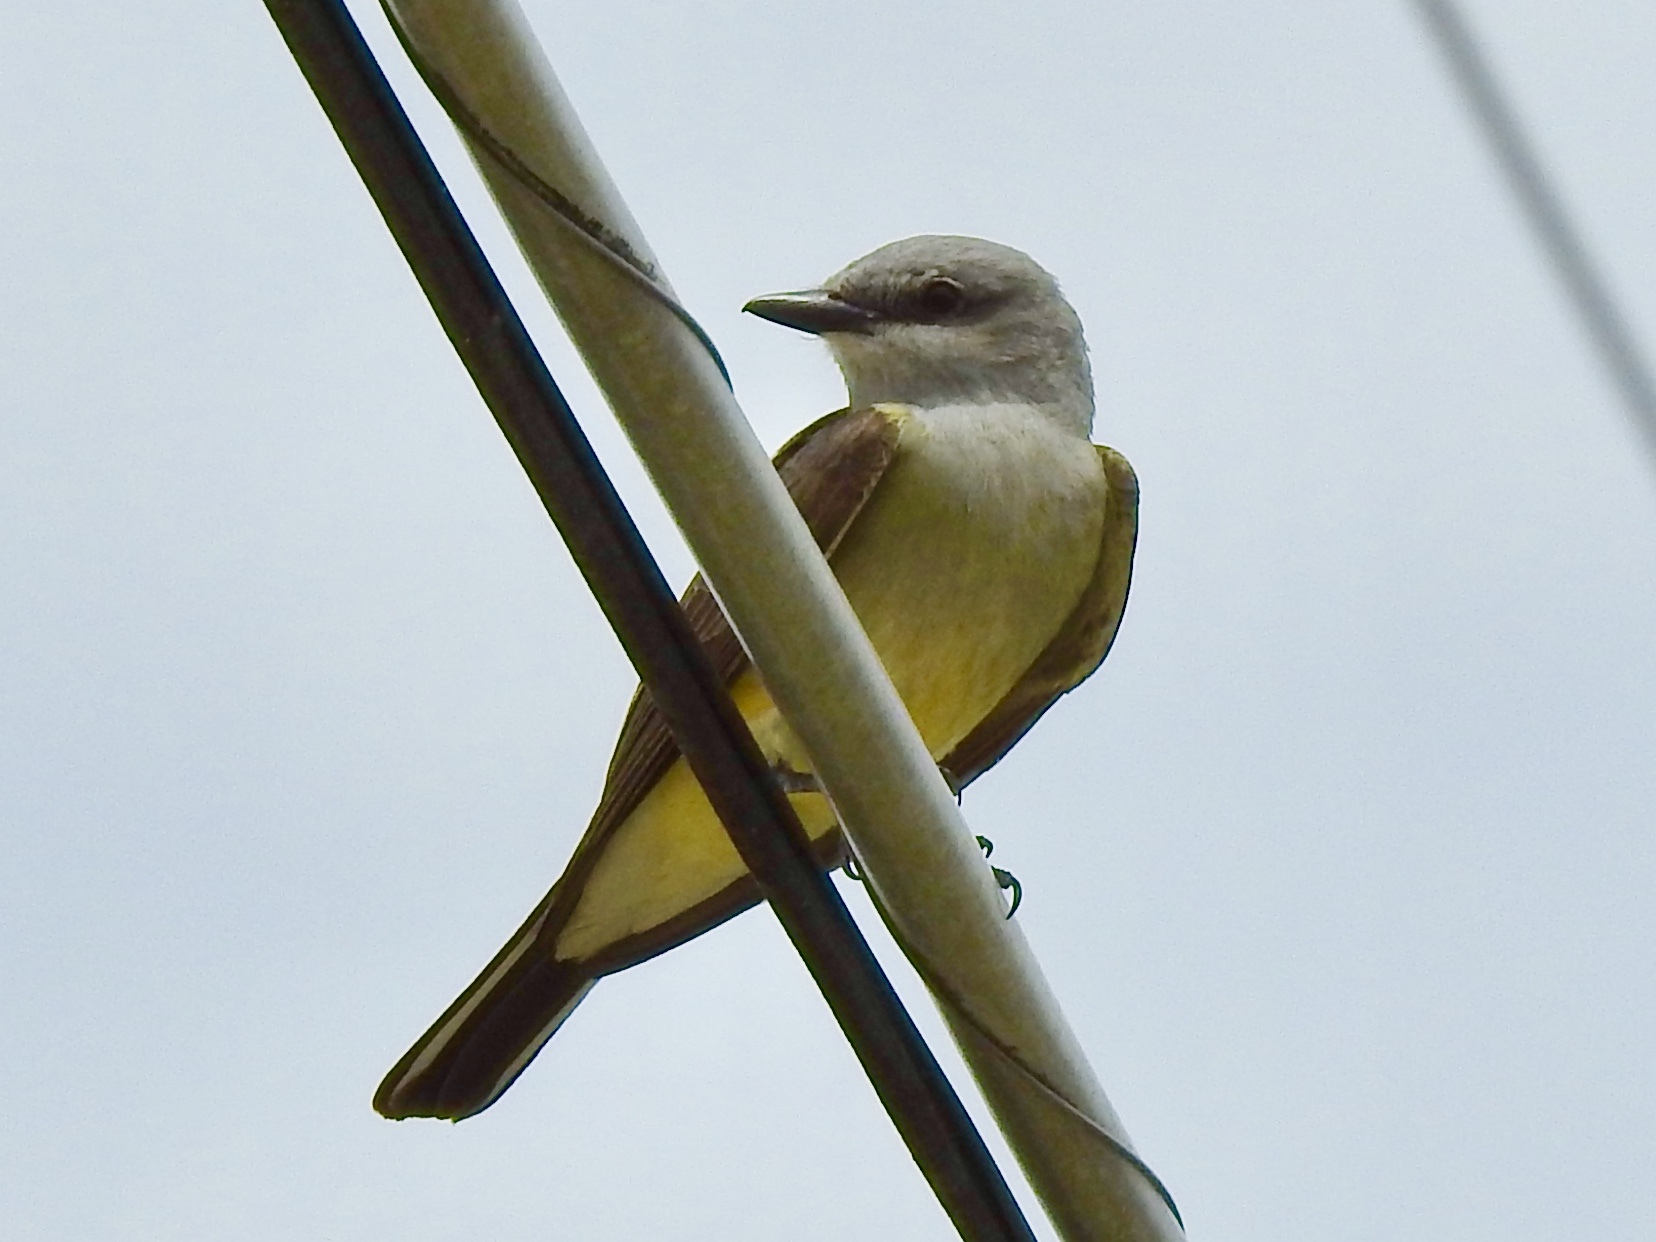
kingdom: Animalia
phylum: Chordata
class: Aves
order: Passeriformes
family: Tyrannidae
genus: Tyrannus
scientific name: Tyrannus verticalis
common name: Western kingbird
